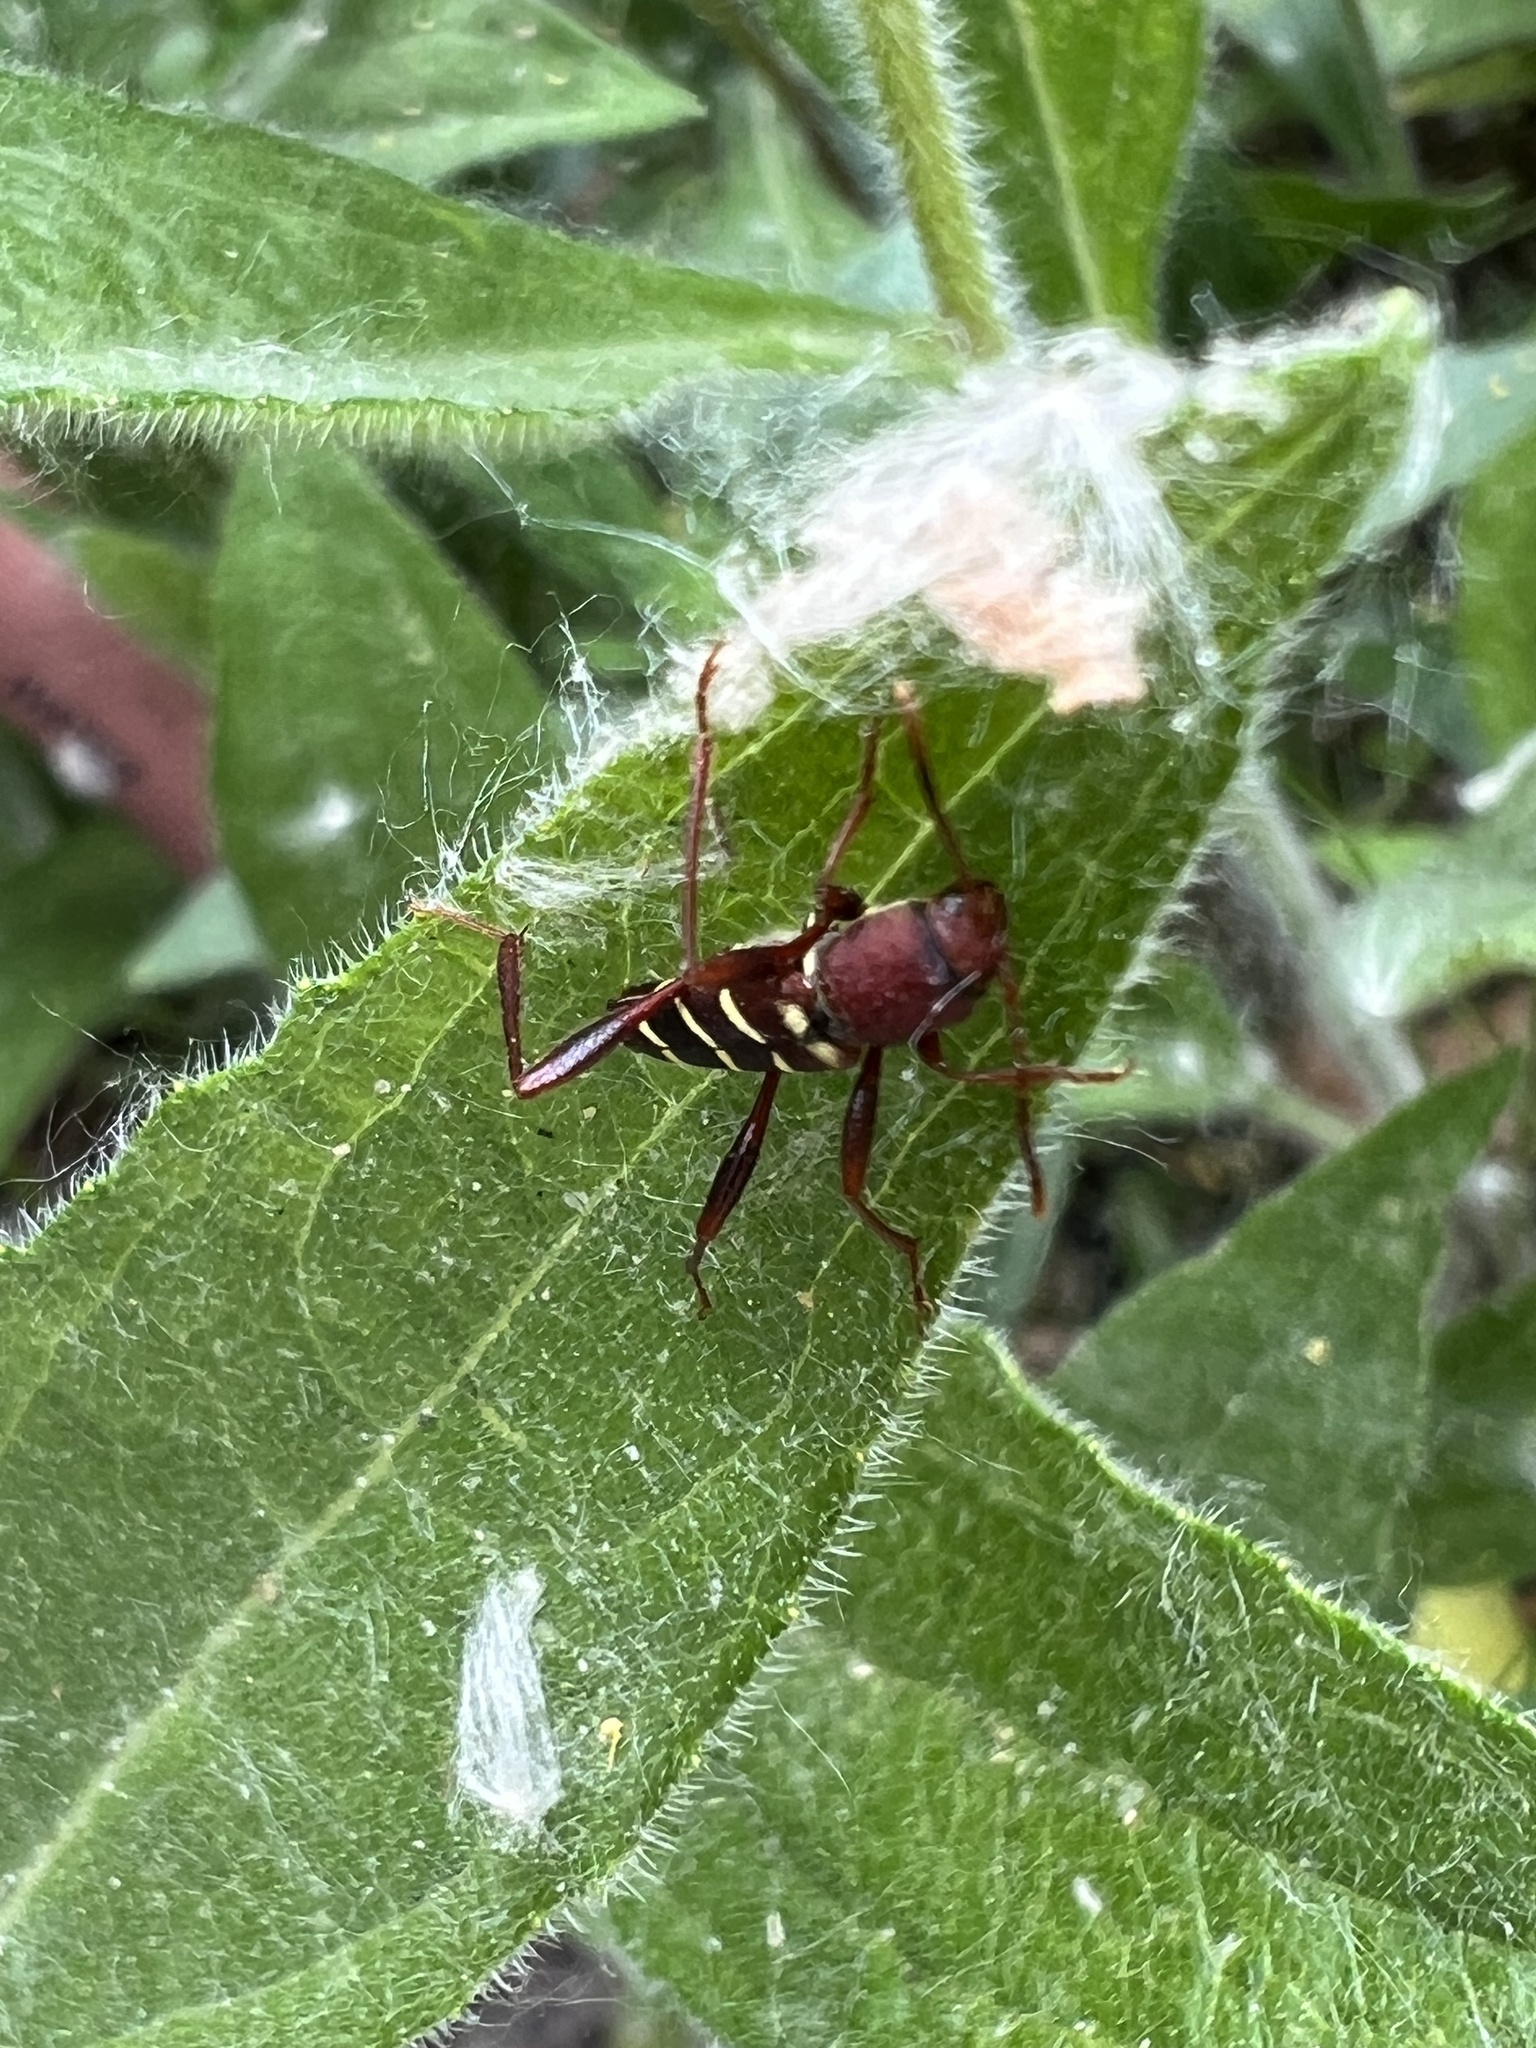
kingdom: Animalia
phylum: Arthropoda
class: Insecta
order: Coleoptera
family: Cerambycidae
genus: Neoclytus
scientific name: Neoclytus acuminatus
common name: Read-headed ash borer
